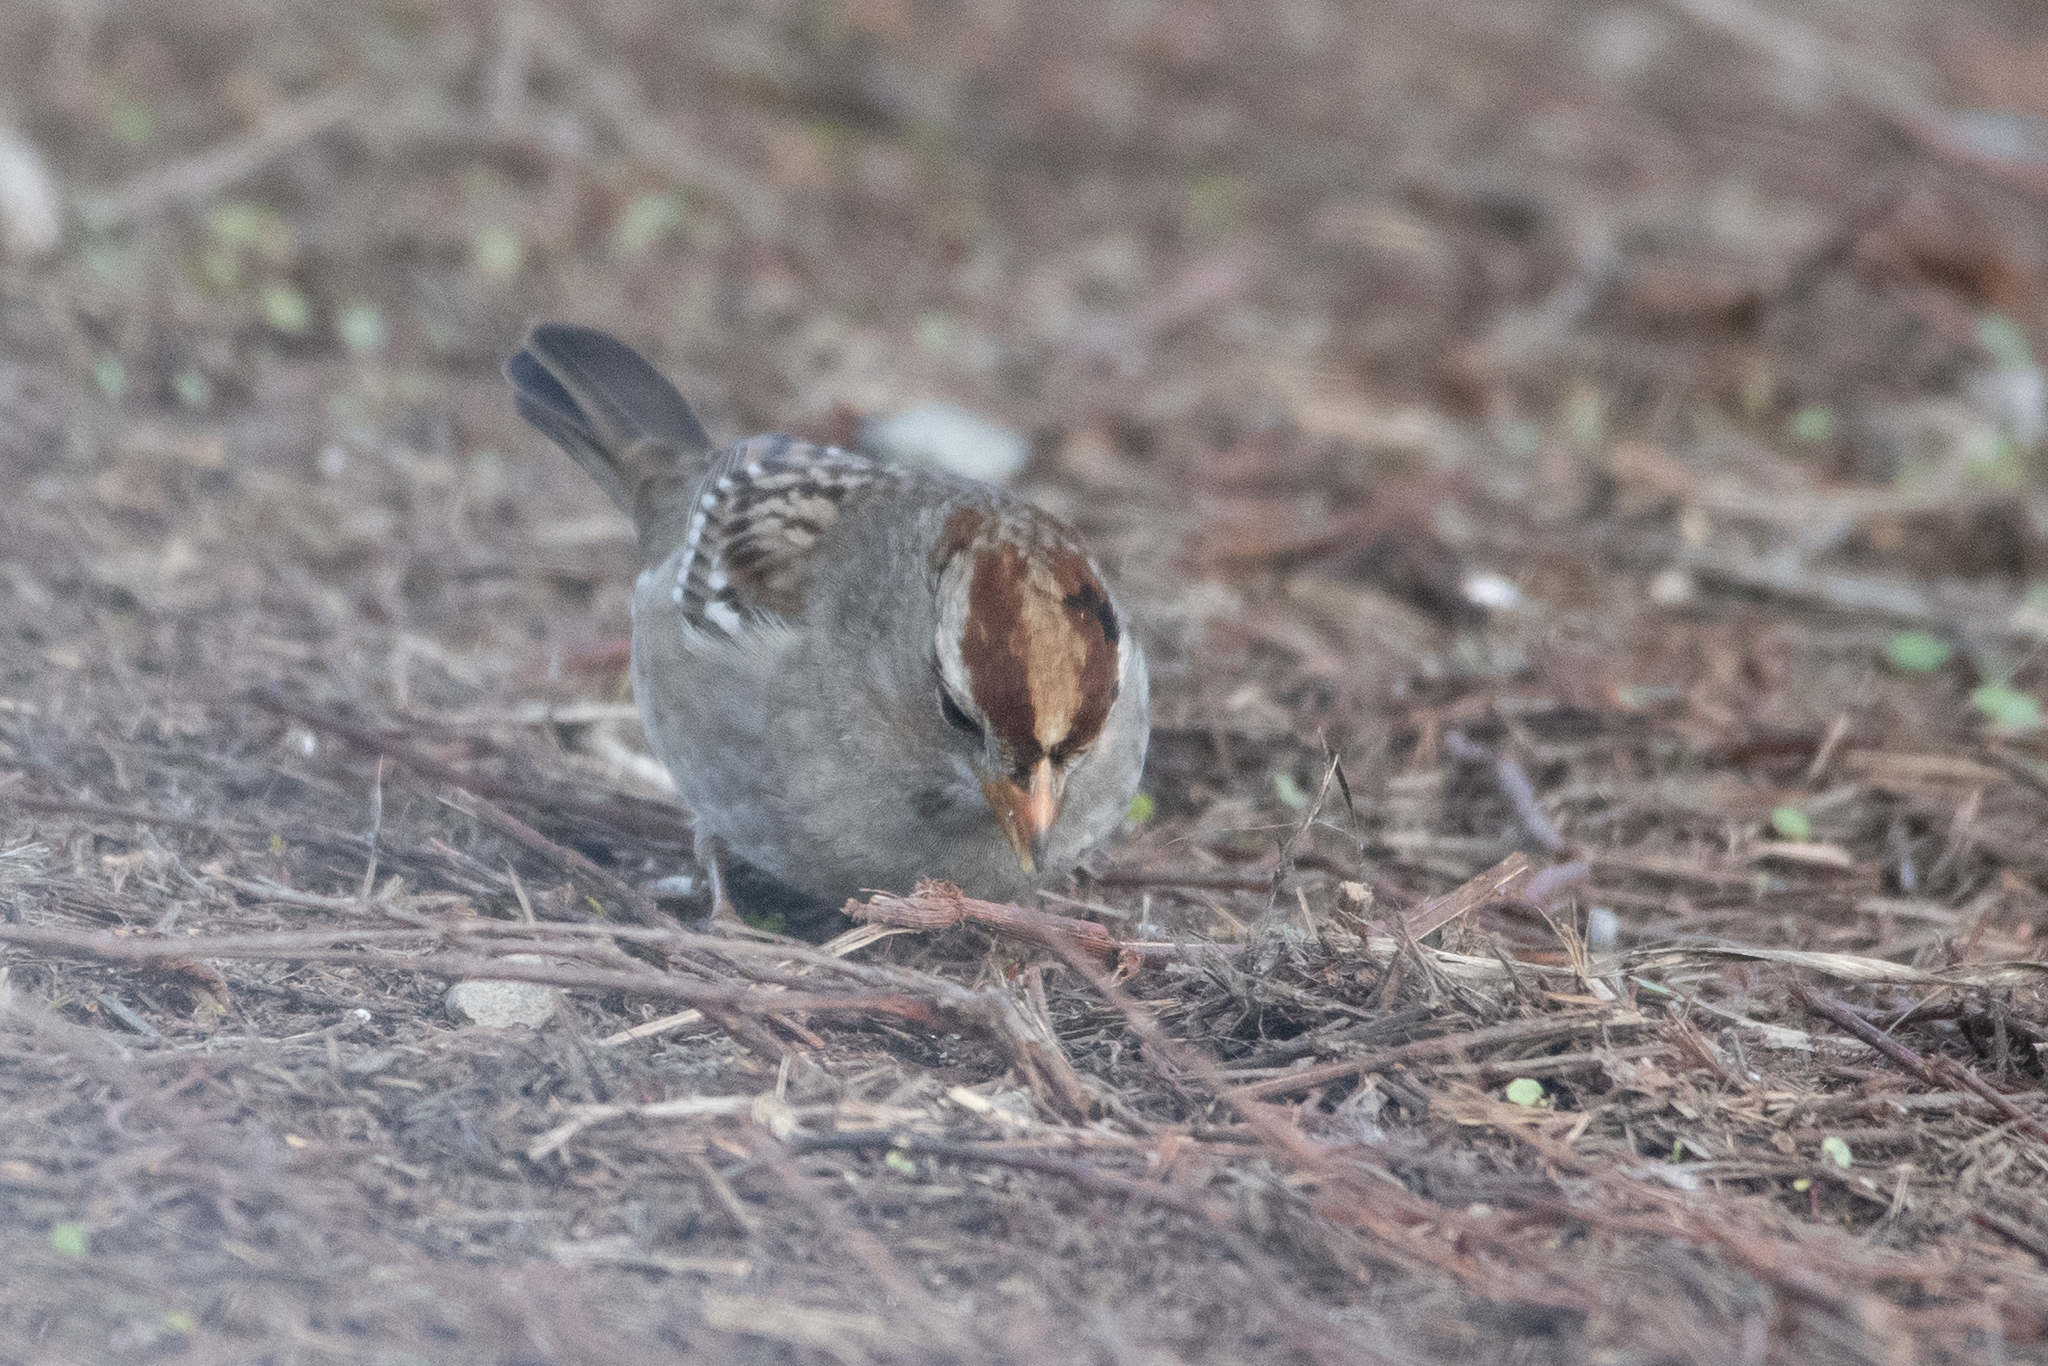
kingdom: Animalia
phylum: Chordata
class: Aves
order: Passeriformes
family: Passerellidae
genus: Zonotrichia
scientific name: Zonotrichia leucophrys
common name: White-crowned sparrow
